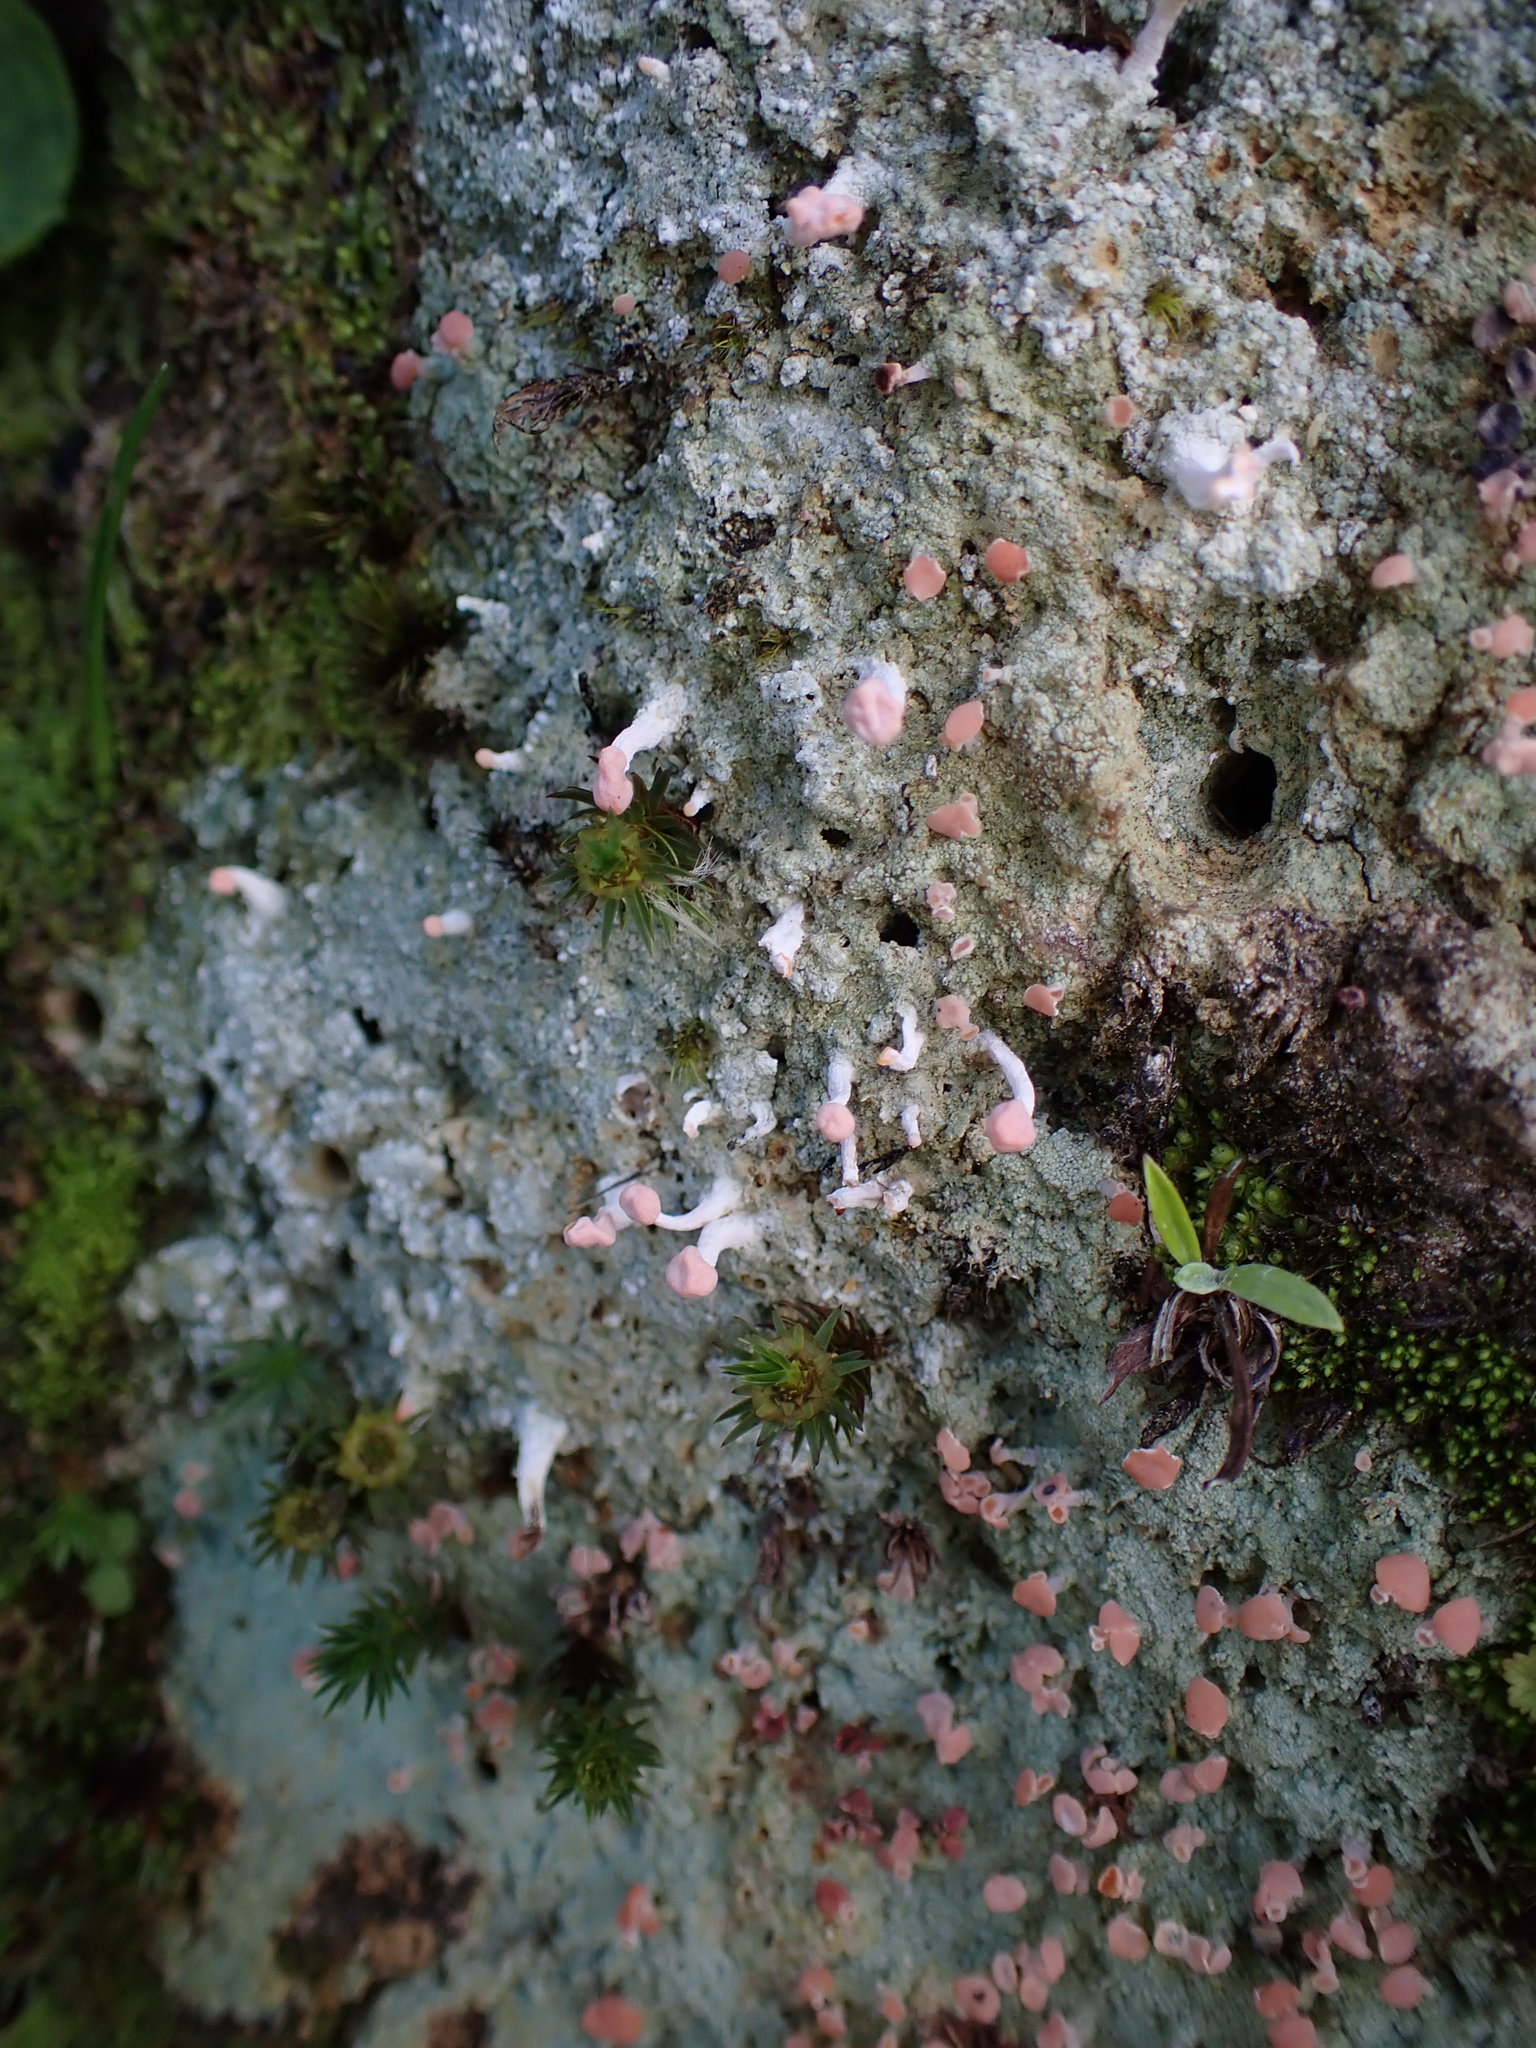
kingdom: Fungi
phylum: Ascomycota
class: Lecanoromycetes
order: Pertusariales
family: Icmadophilaceae
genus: Dibaeis
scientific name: Dibaeis arcuata
